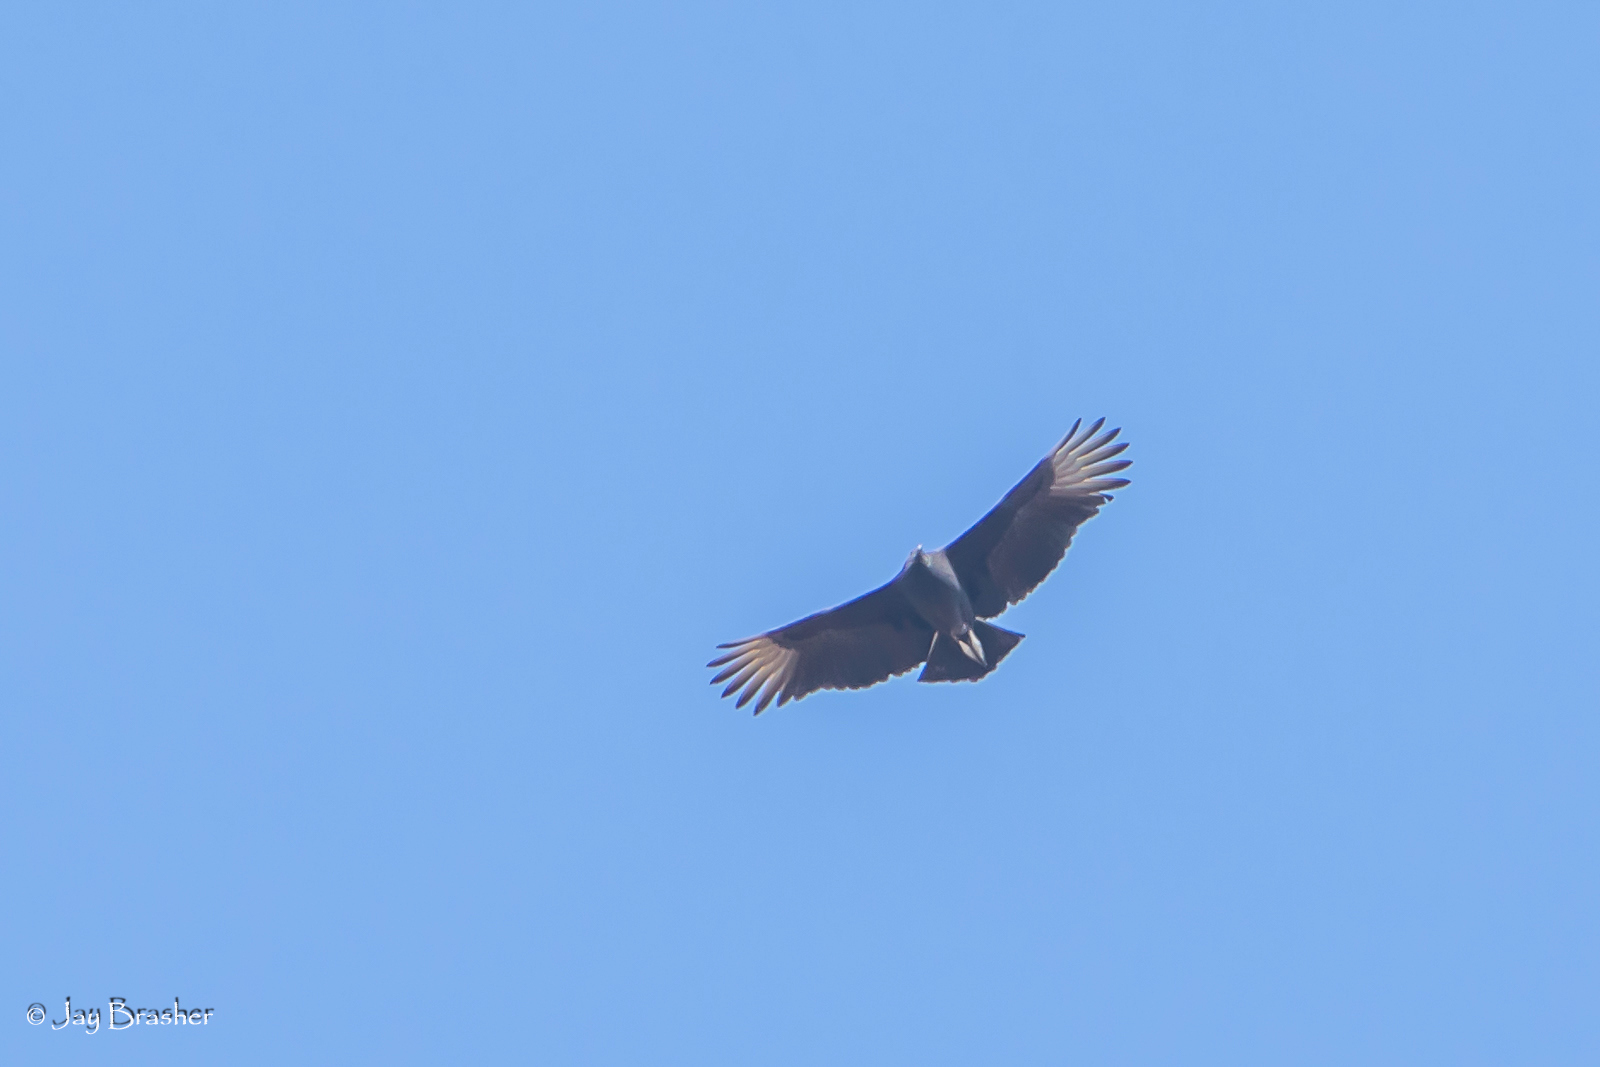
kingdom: Animalia
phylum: Chordata
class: Aves
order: Accipitriformes
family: Cathartidae
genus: Coragyps
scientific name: Coragyps atratus
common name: Black vulture
